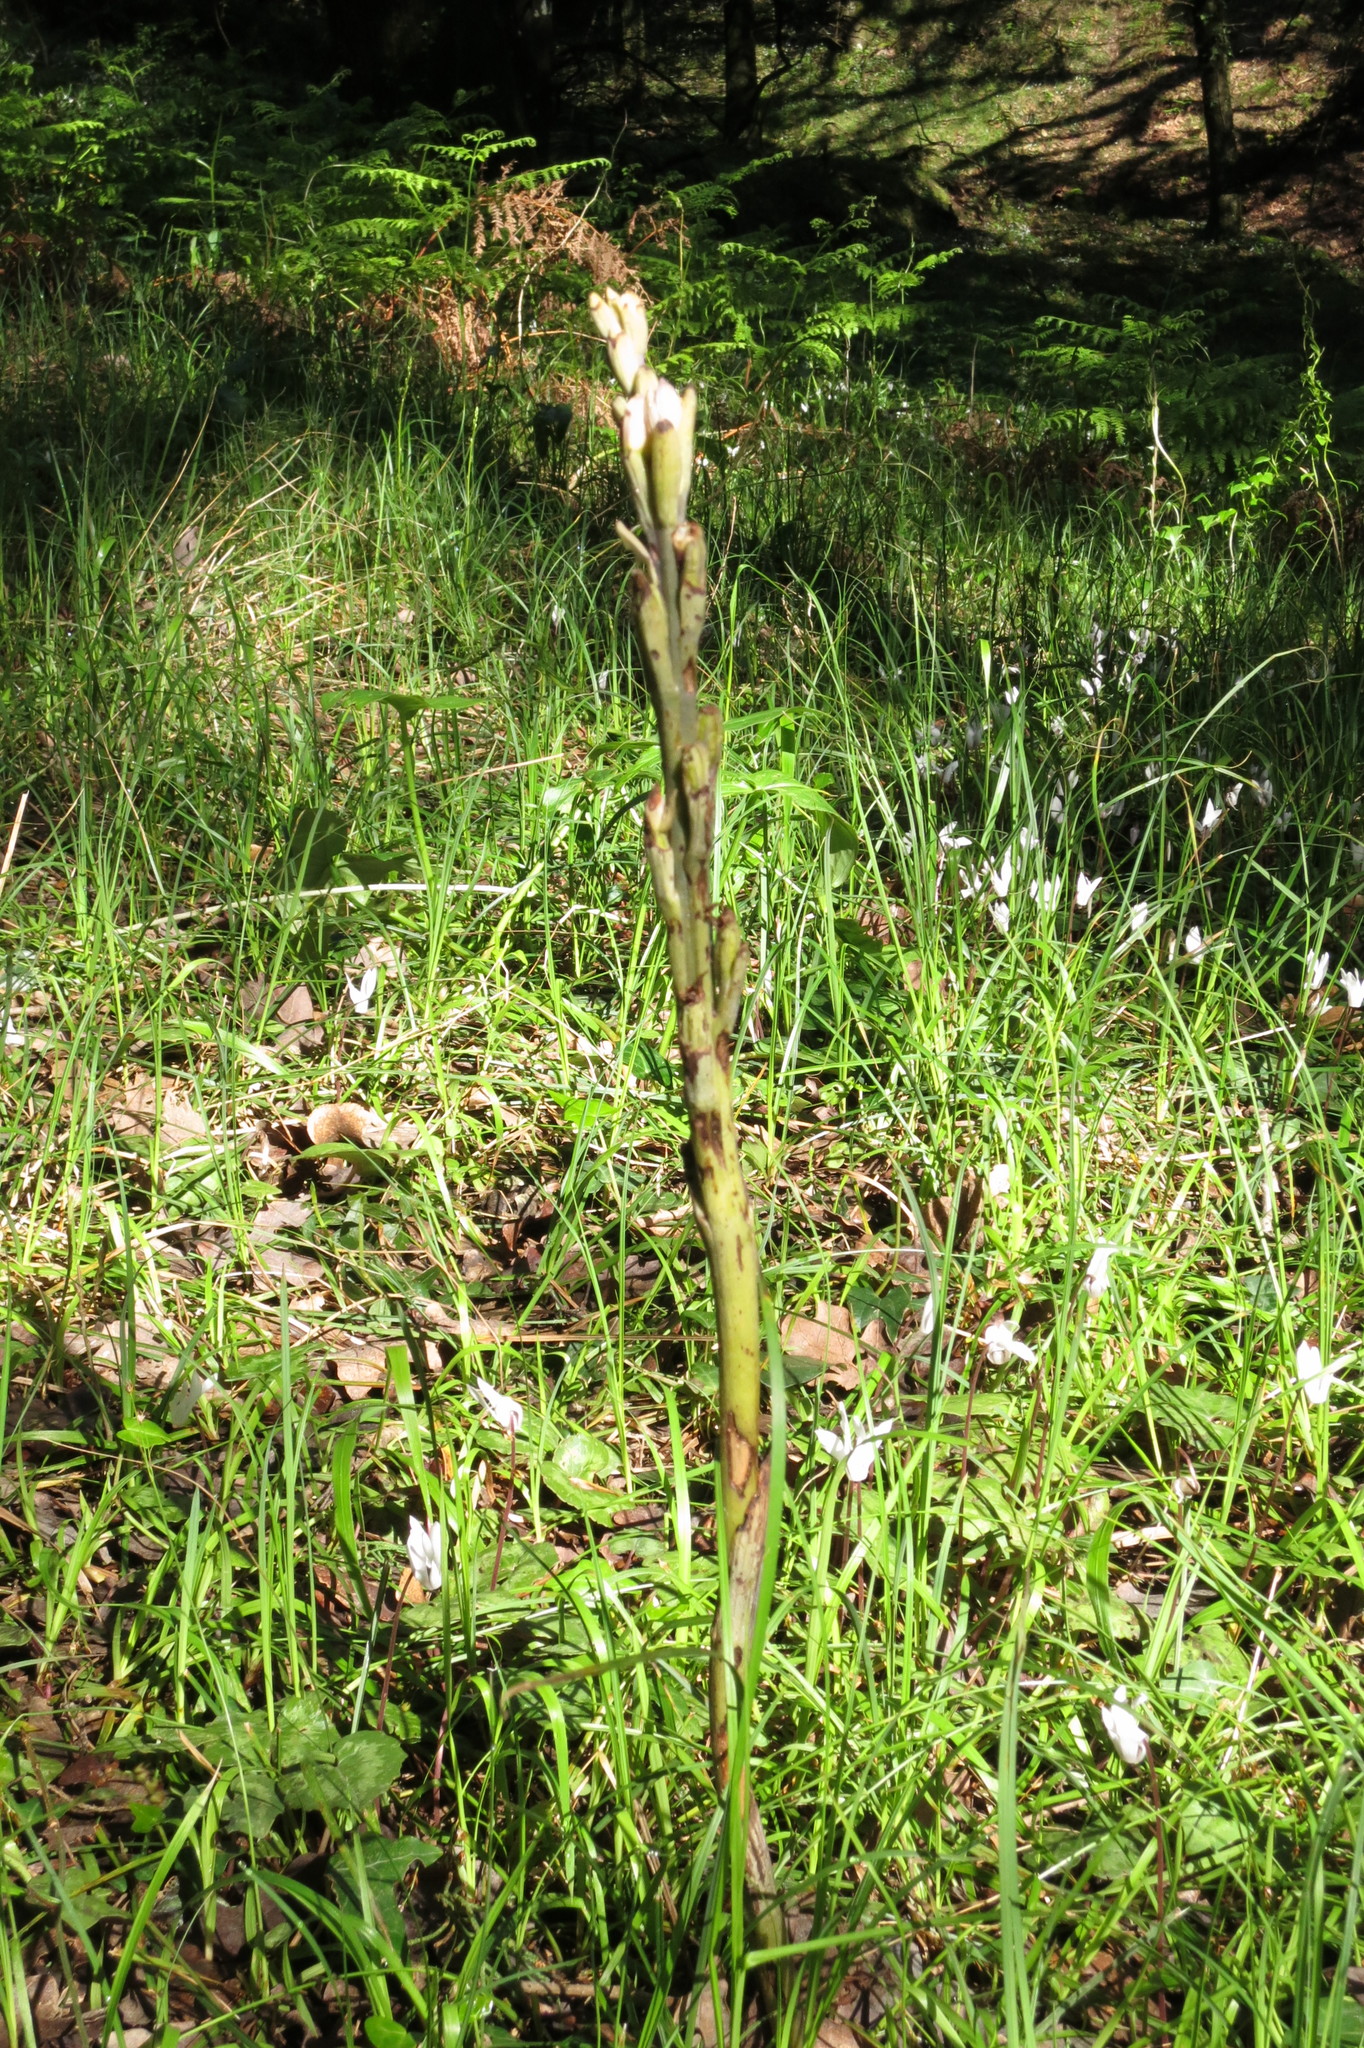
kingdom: Plantae
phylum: Tracheophyta
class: Liliopsida
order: Asparagales
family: Orchidaceae
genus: Limodorum
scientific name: Limodorum abortivum
